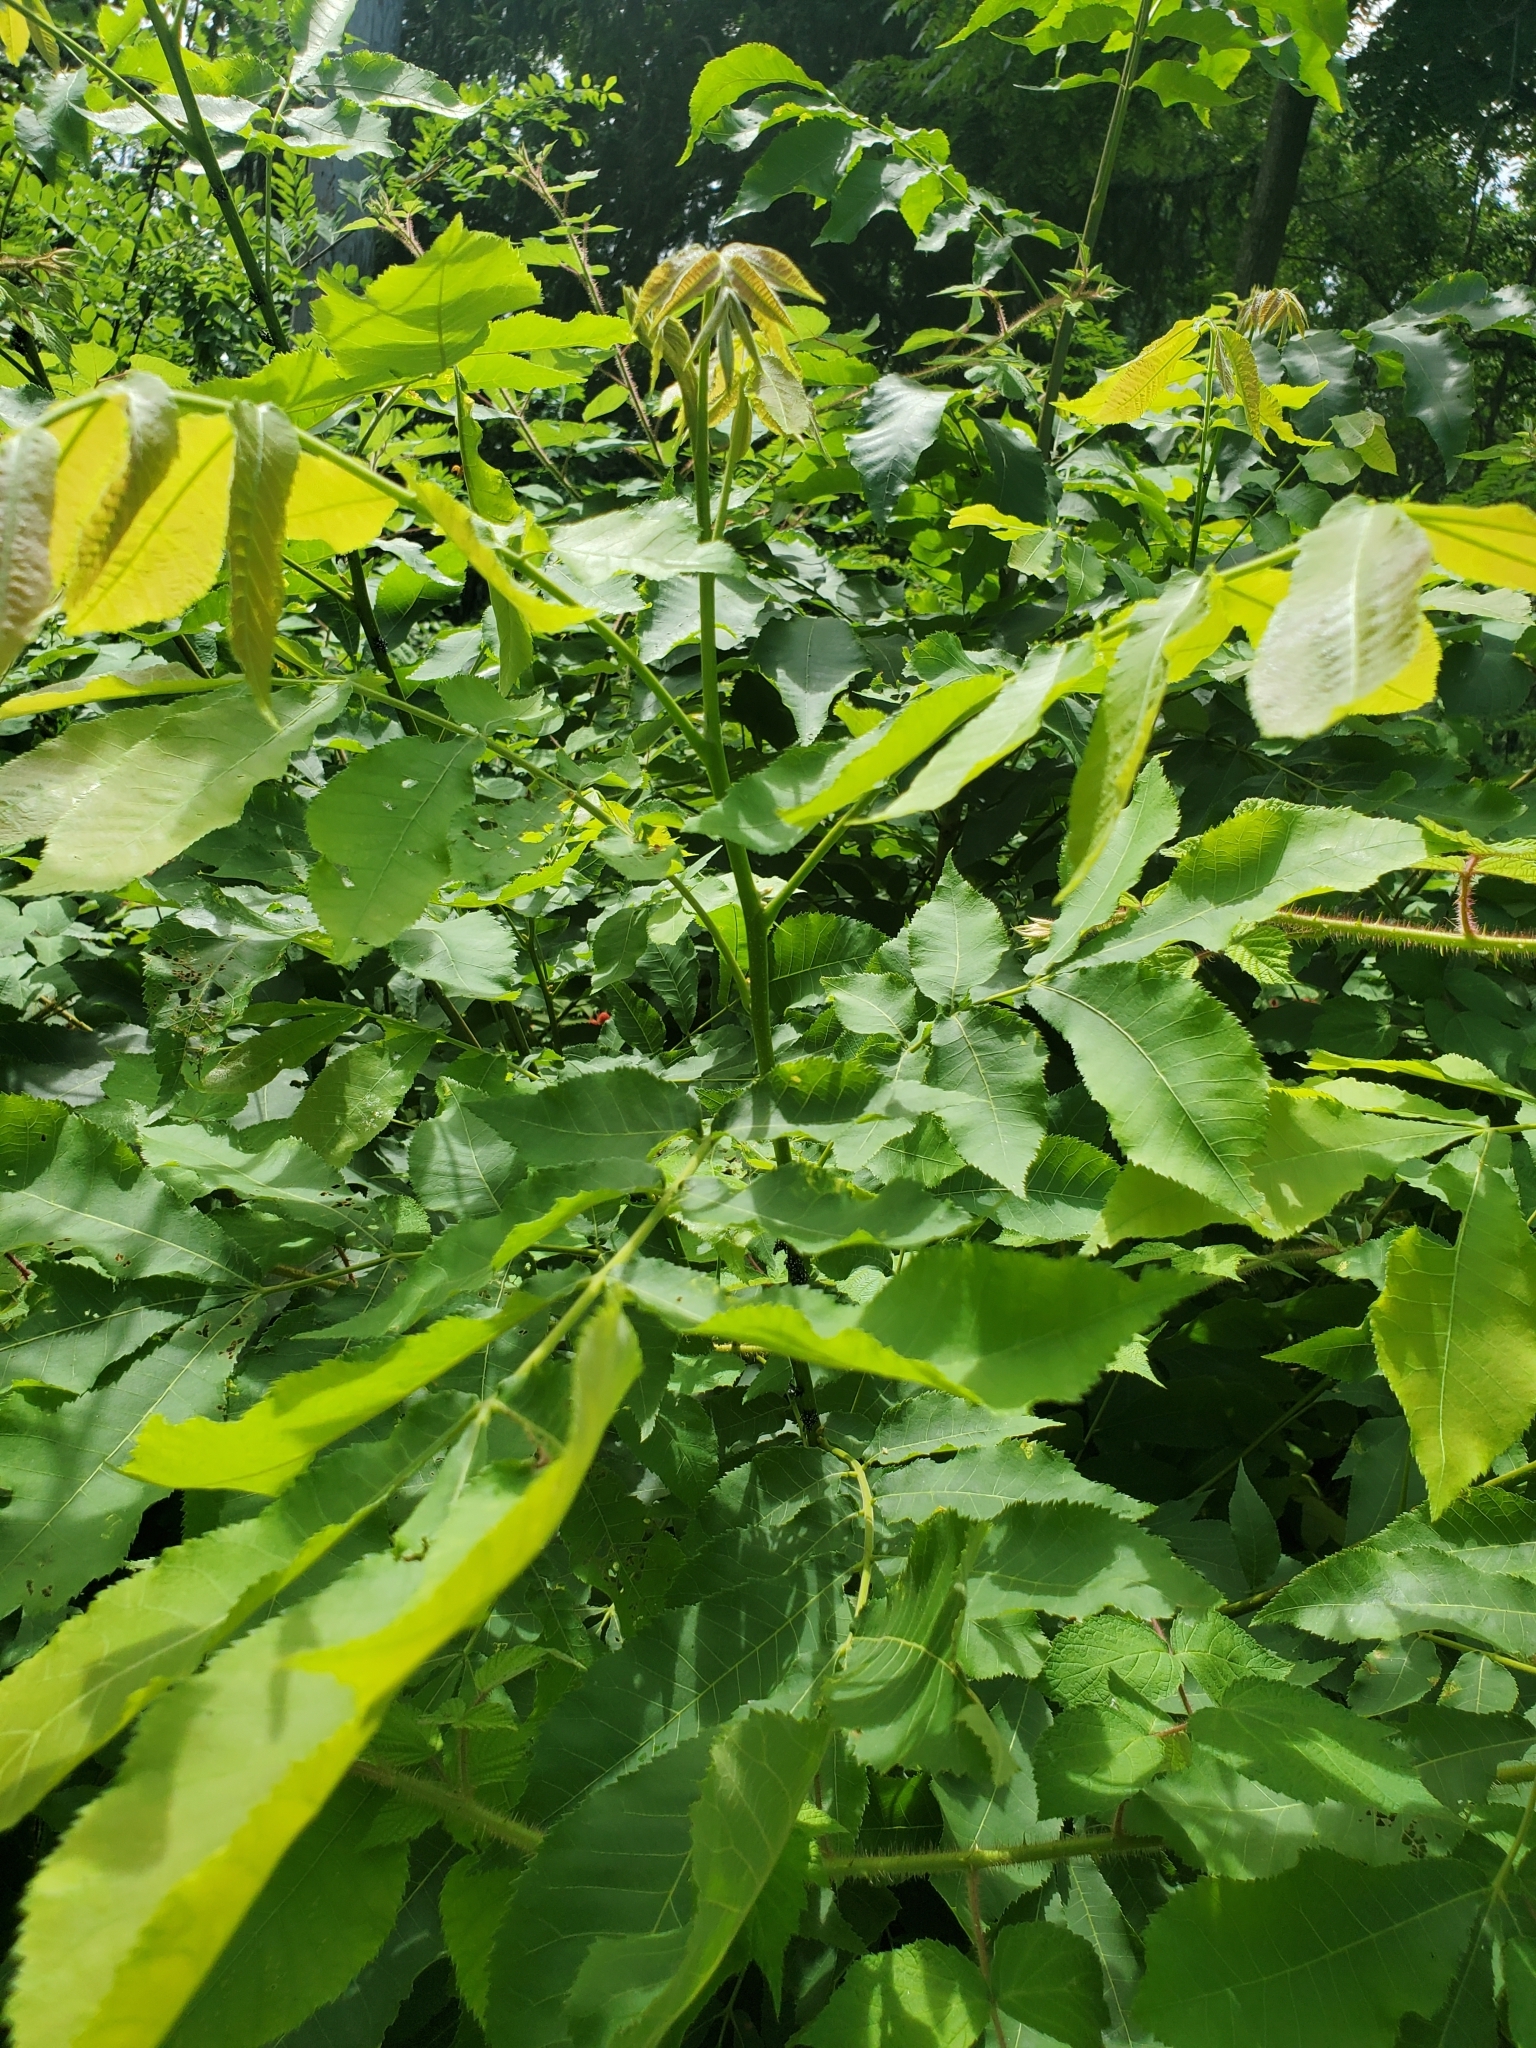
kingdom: Plantae
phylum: Tracheophyta
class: Magnoliopsida
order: Fagales
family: Juglandaceae
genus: Carya
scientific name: Carya cordiformis
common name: Bitternut hickory
